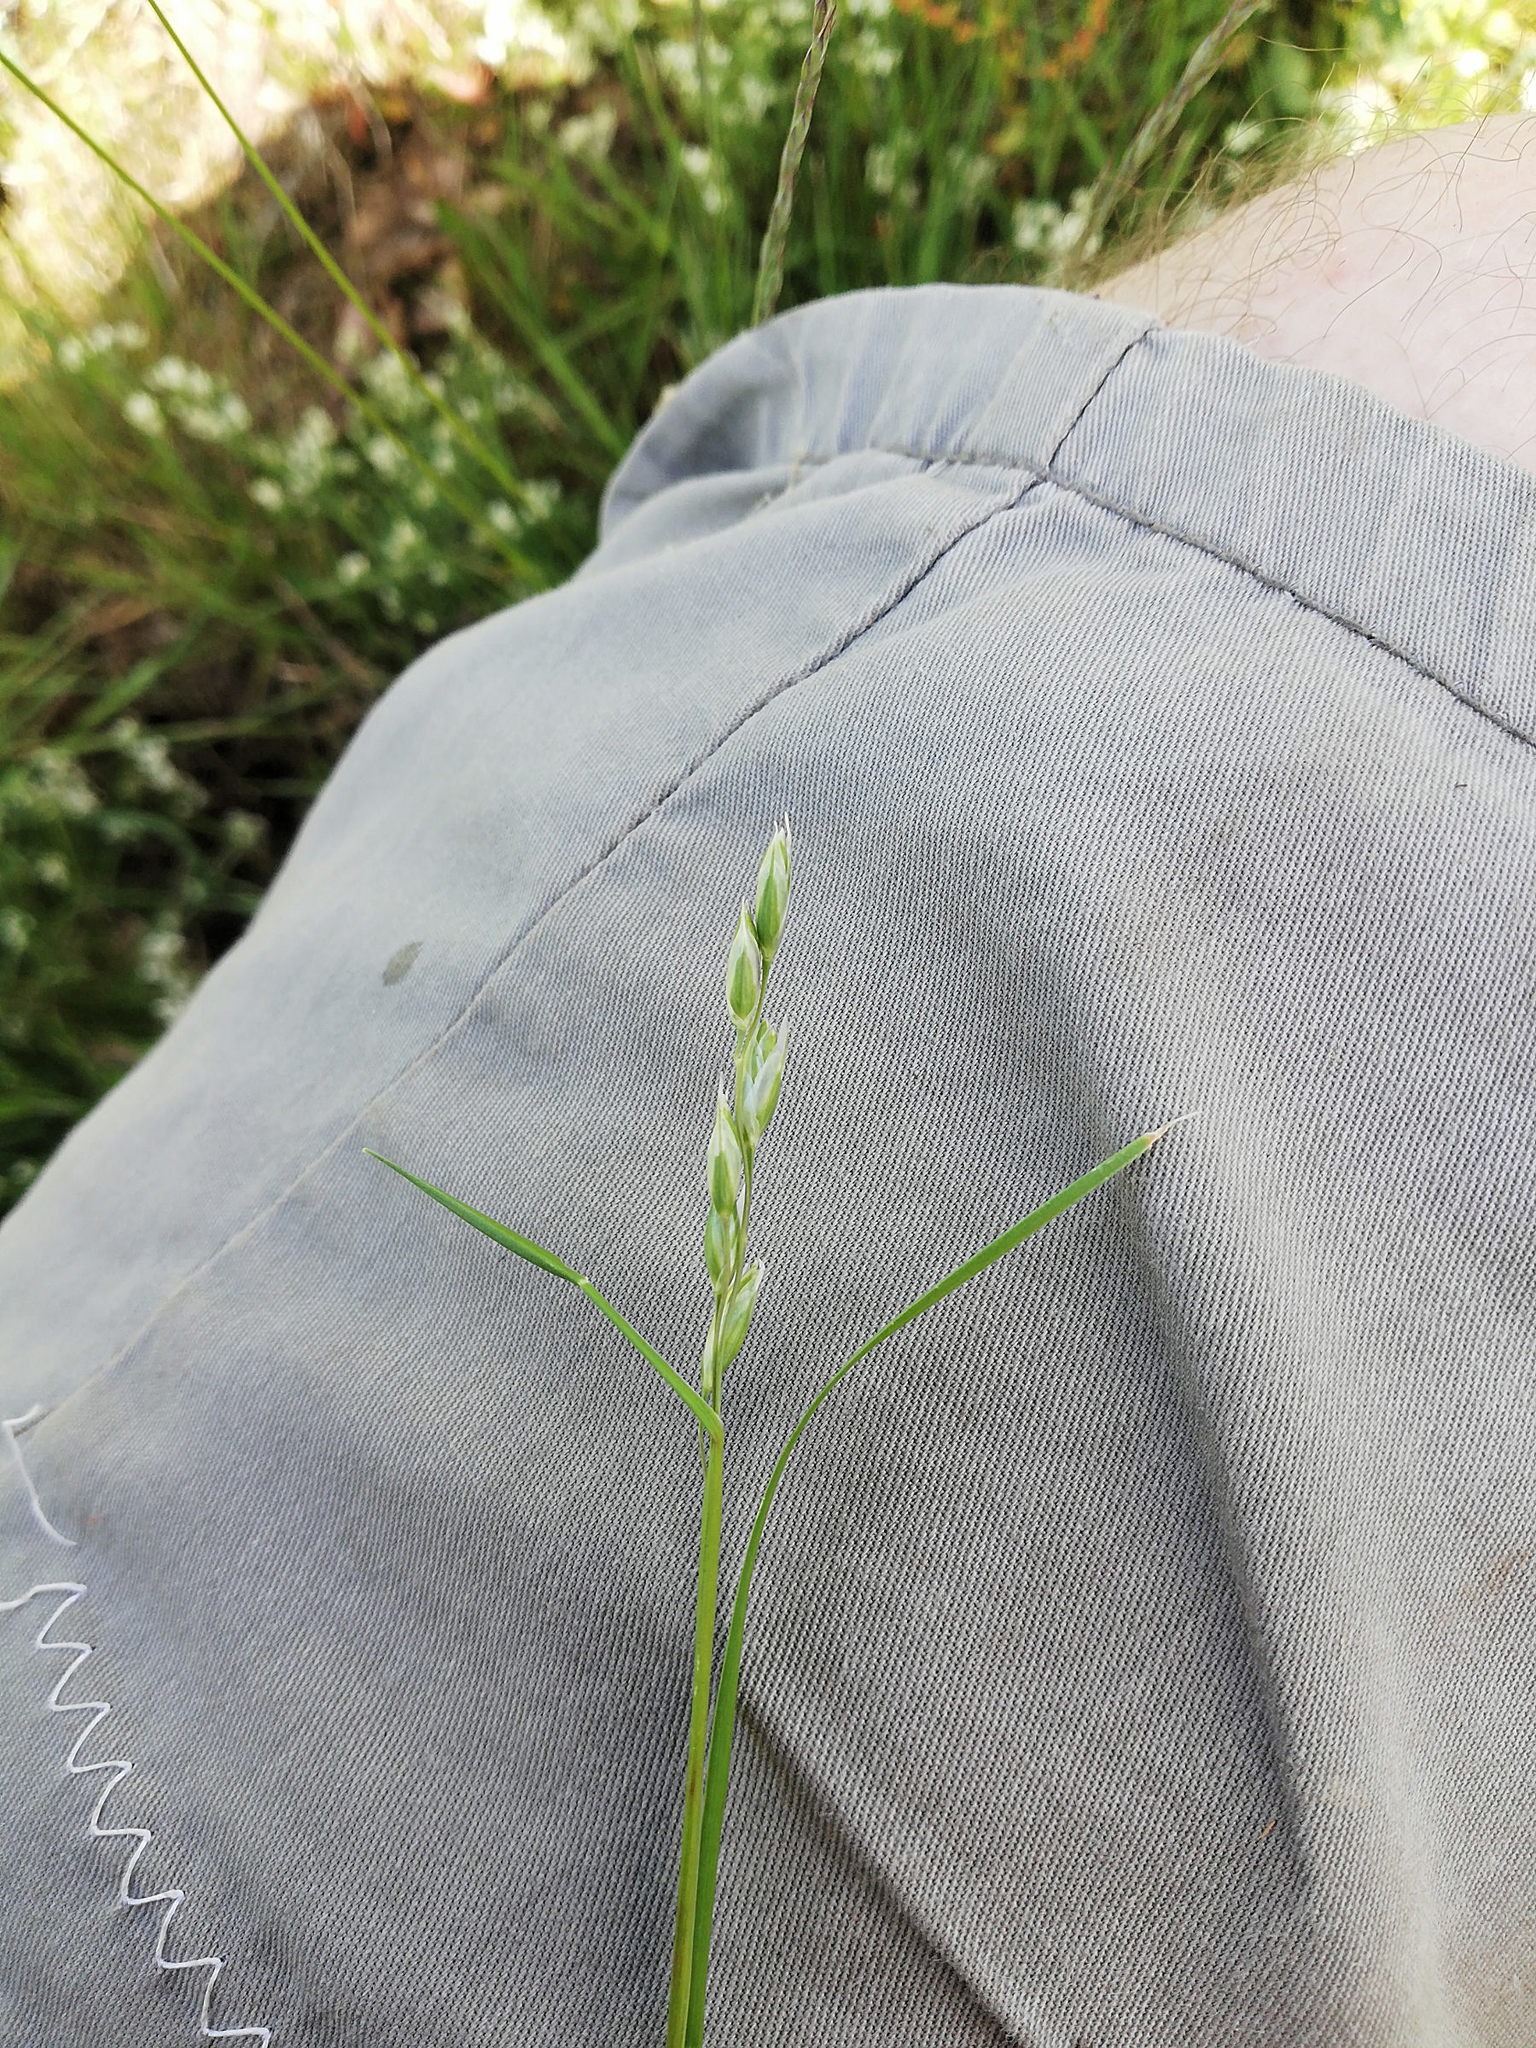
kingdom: Plantae
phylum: Tracheophyta
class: Liliopsida
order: Poales
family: Poaceae
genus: Danthonia
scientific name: Danthonia decumbens
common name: Common heathgrass
